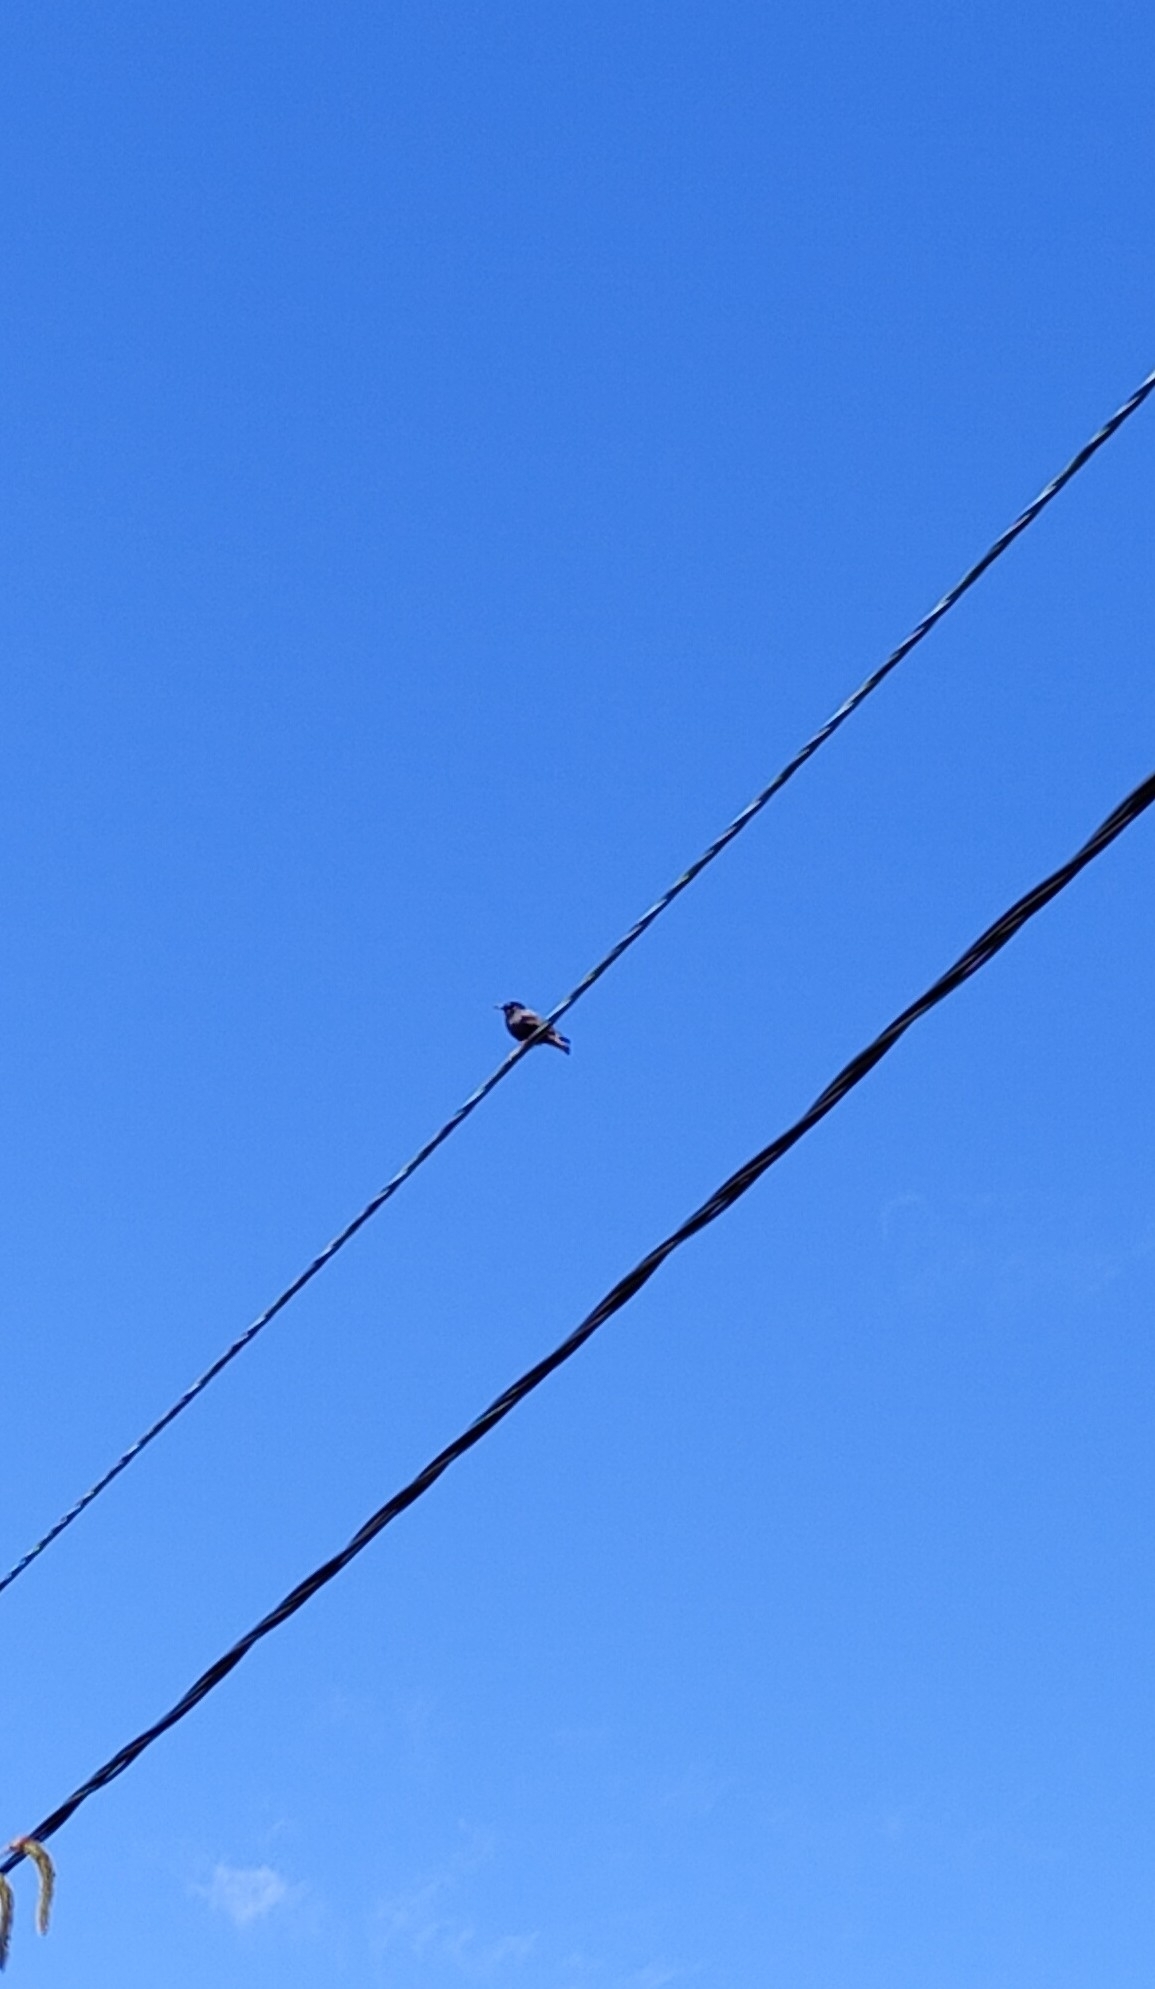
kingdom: Animalia
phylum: Chordata
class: Aves
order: Passeriformes
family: Sturnidae
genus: Sturnus
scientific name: Sturnus vulgaris
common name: Common starling
